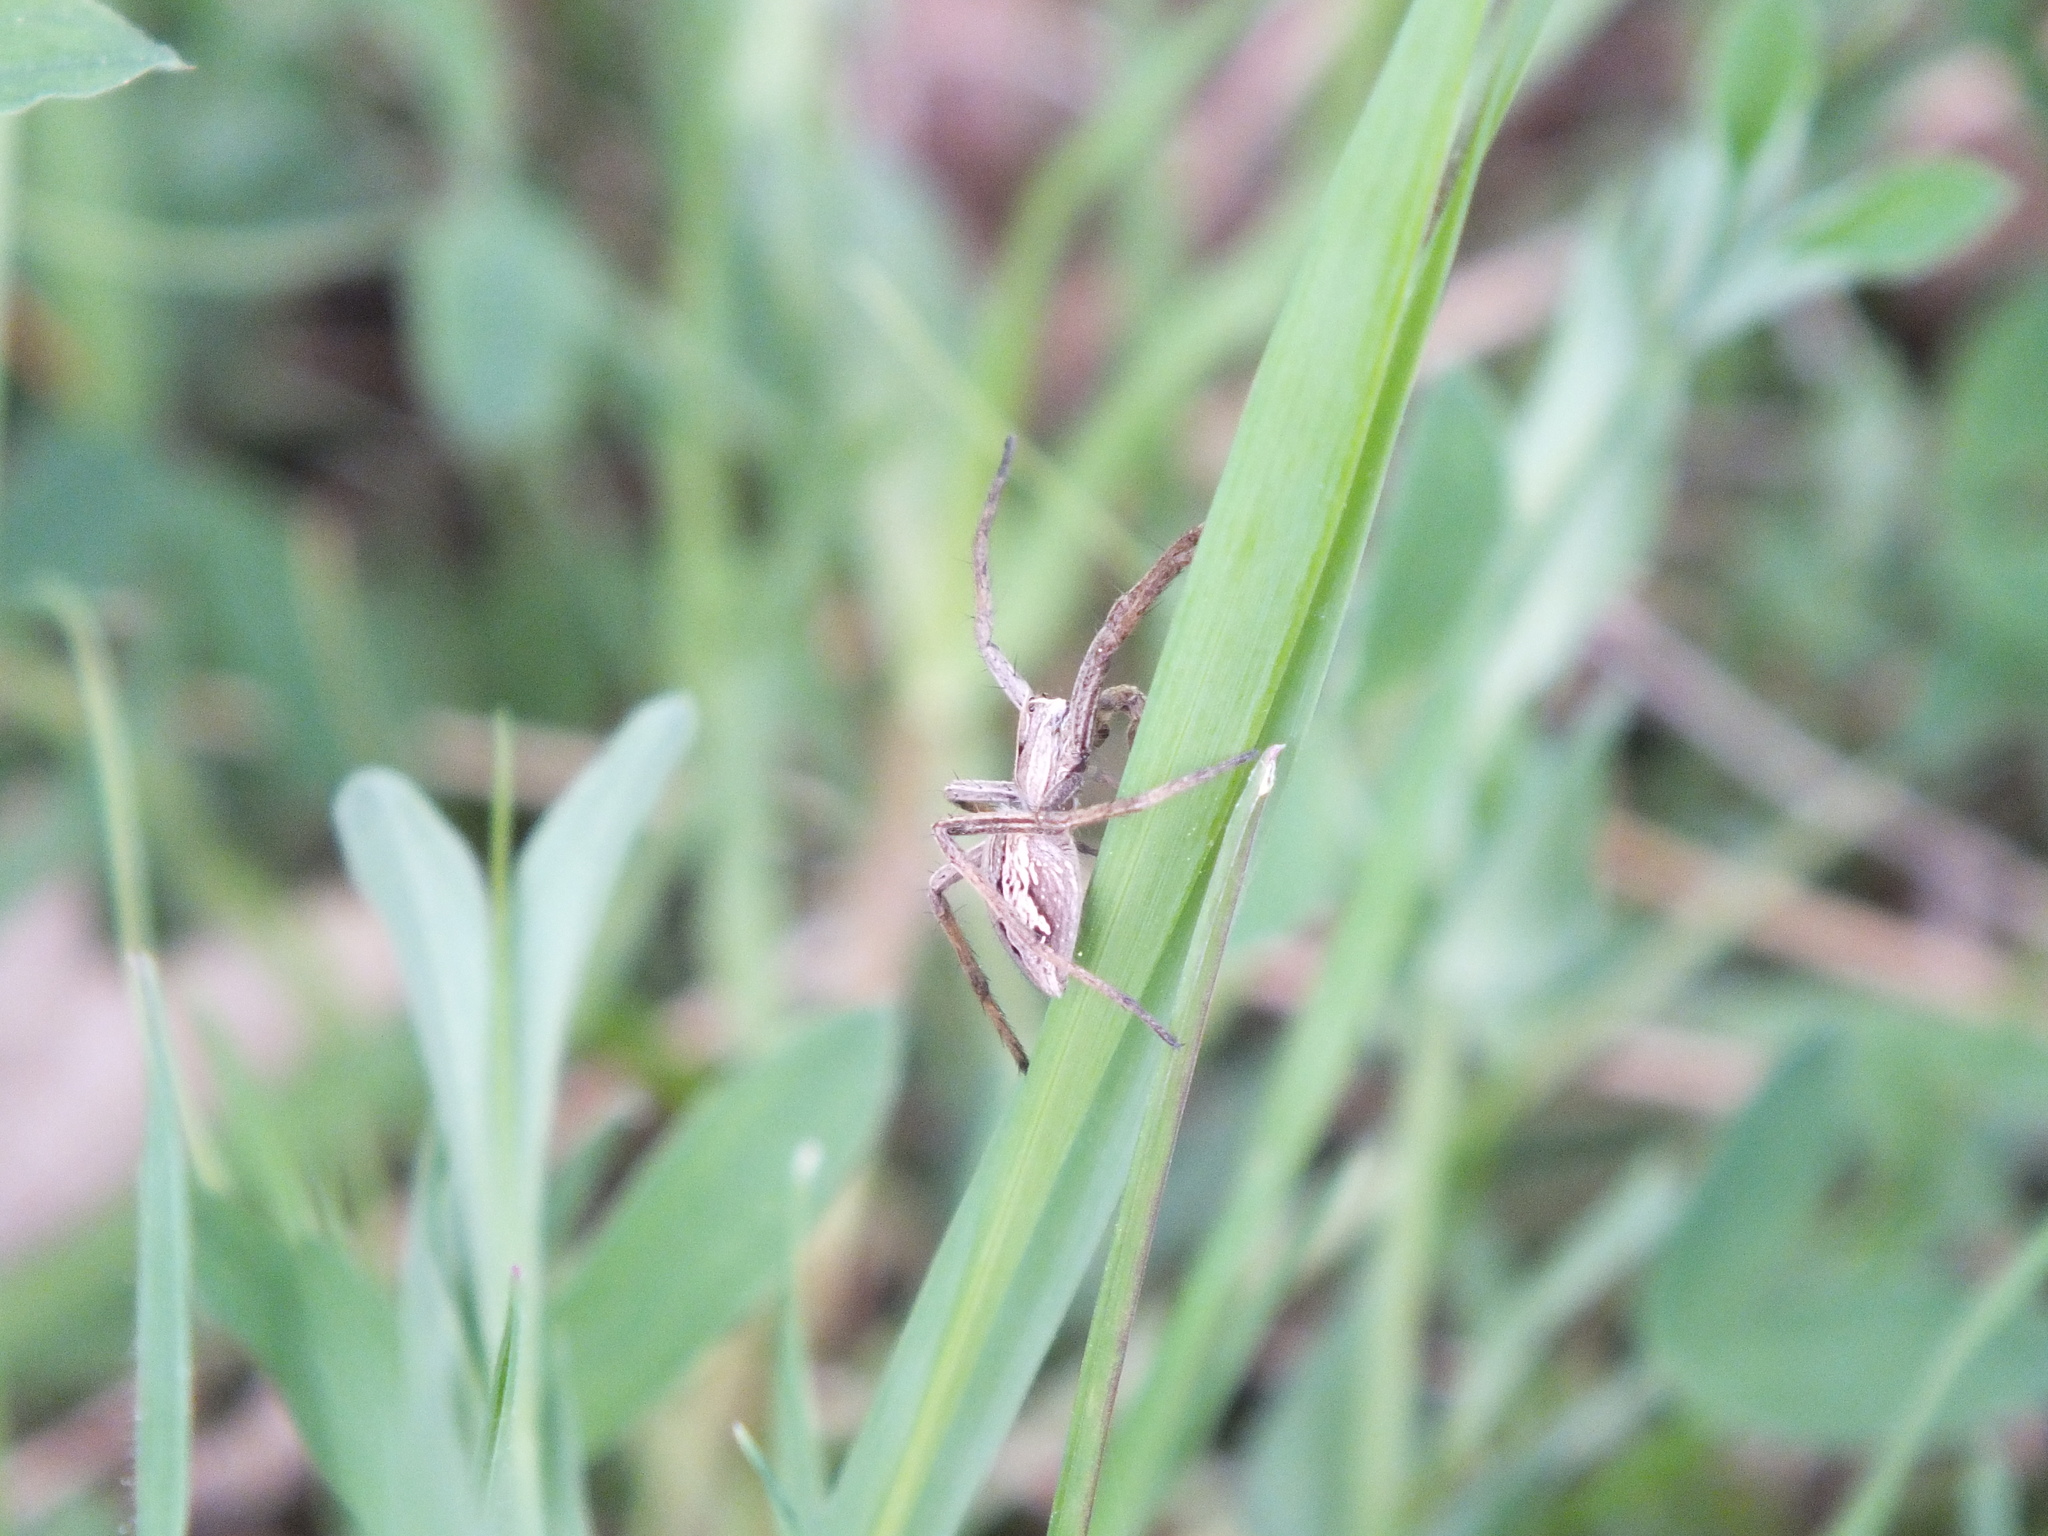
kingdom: Animalia
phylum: Arthropoda
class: Arachnida
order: Araneae
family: Pisauridae
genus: Pisaura
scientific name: Pisaura mirabilis
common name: Tent spider
